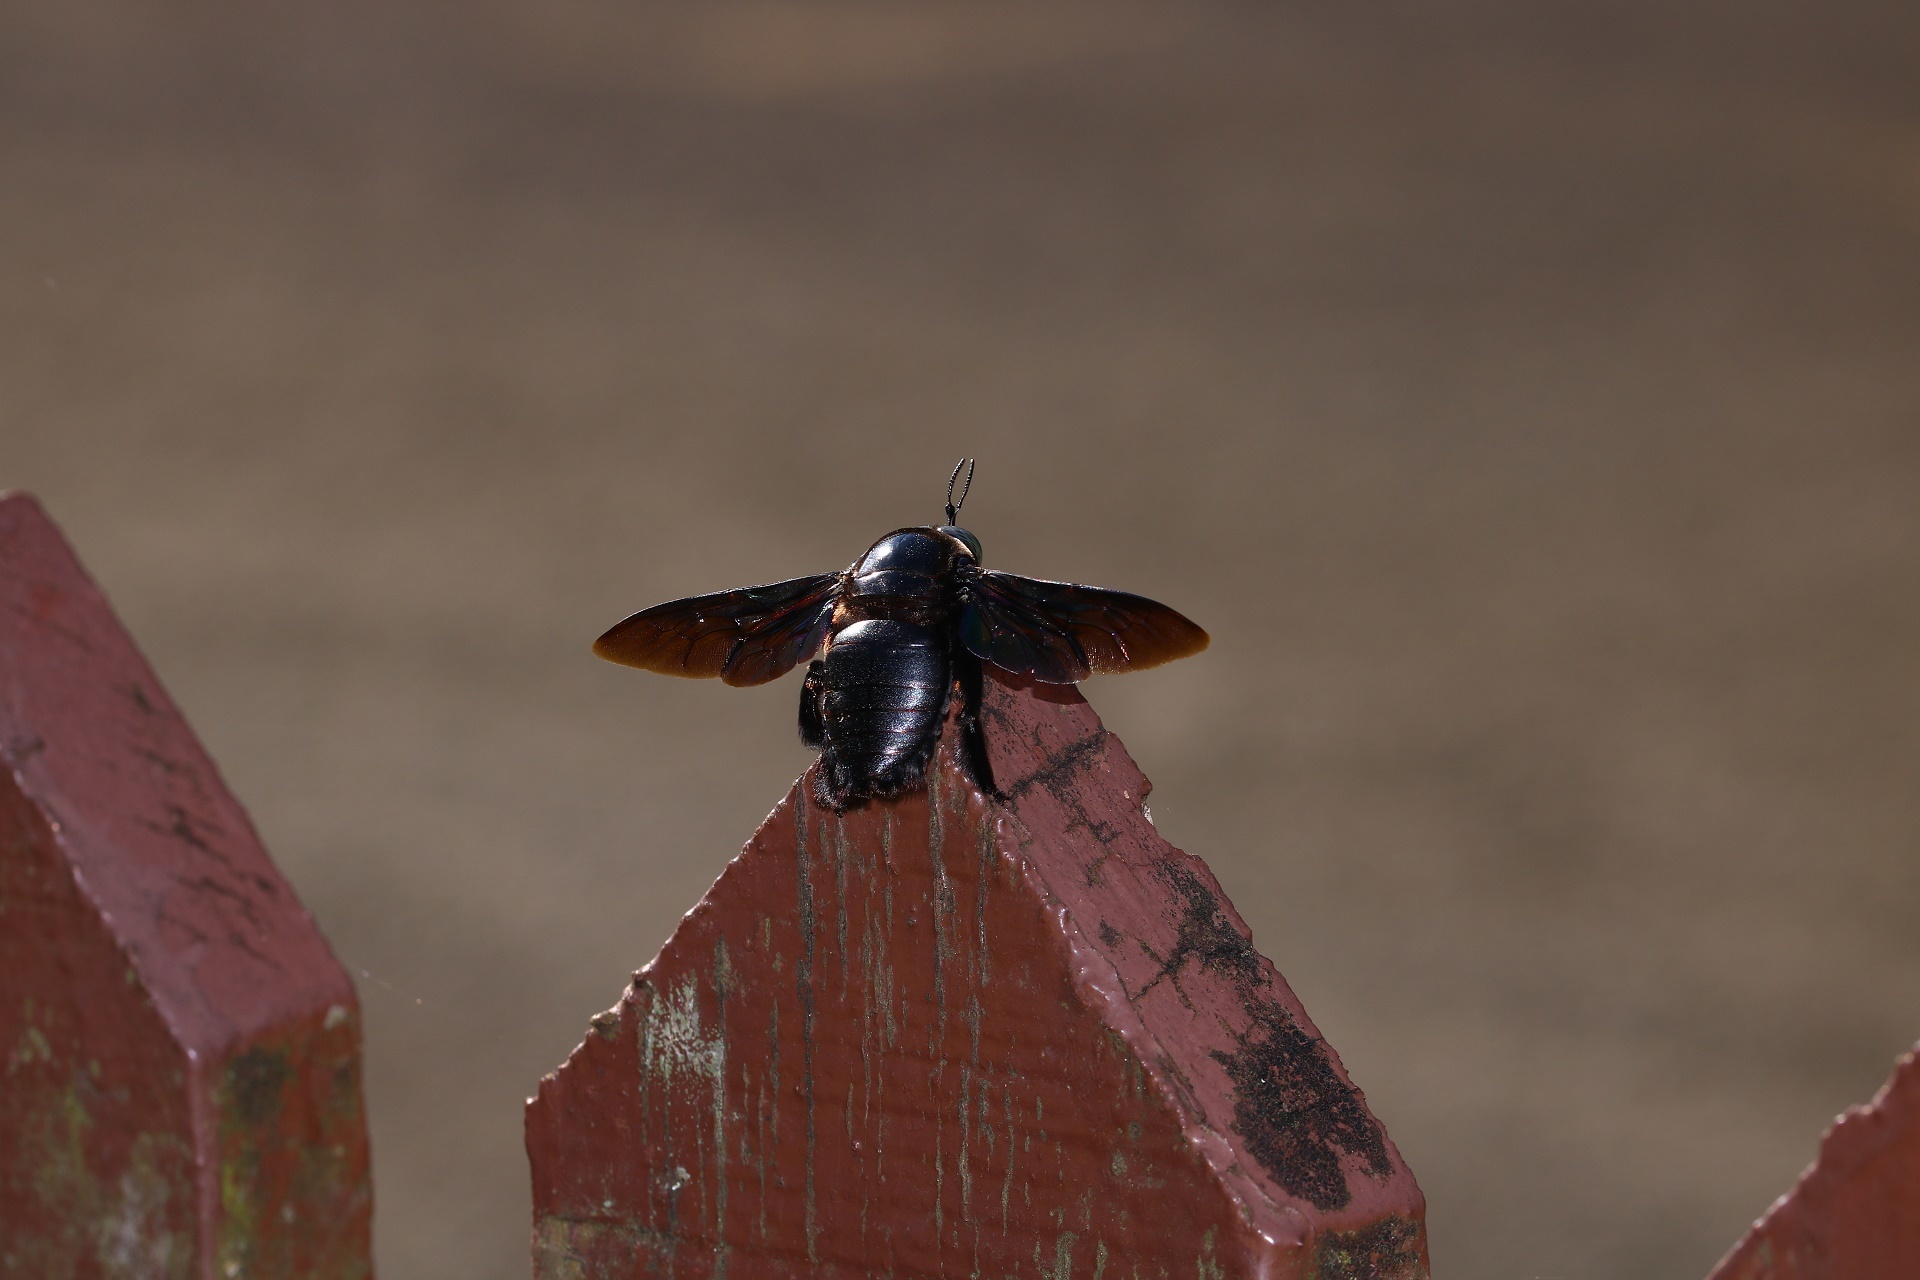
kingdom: Animalia
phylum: Arthropoda
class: Insecta
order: Hymenoptera
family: Apidae
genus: Xylocopa
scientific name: Xylocopa latipes
